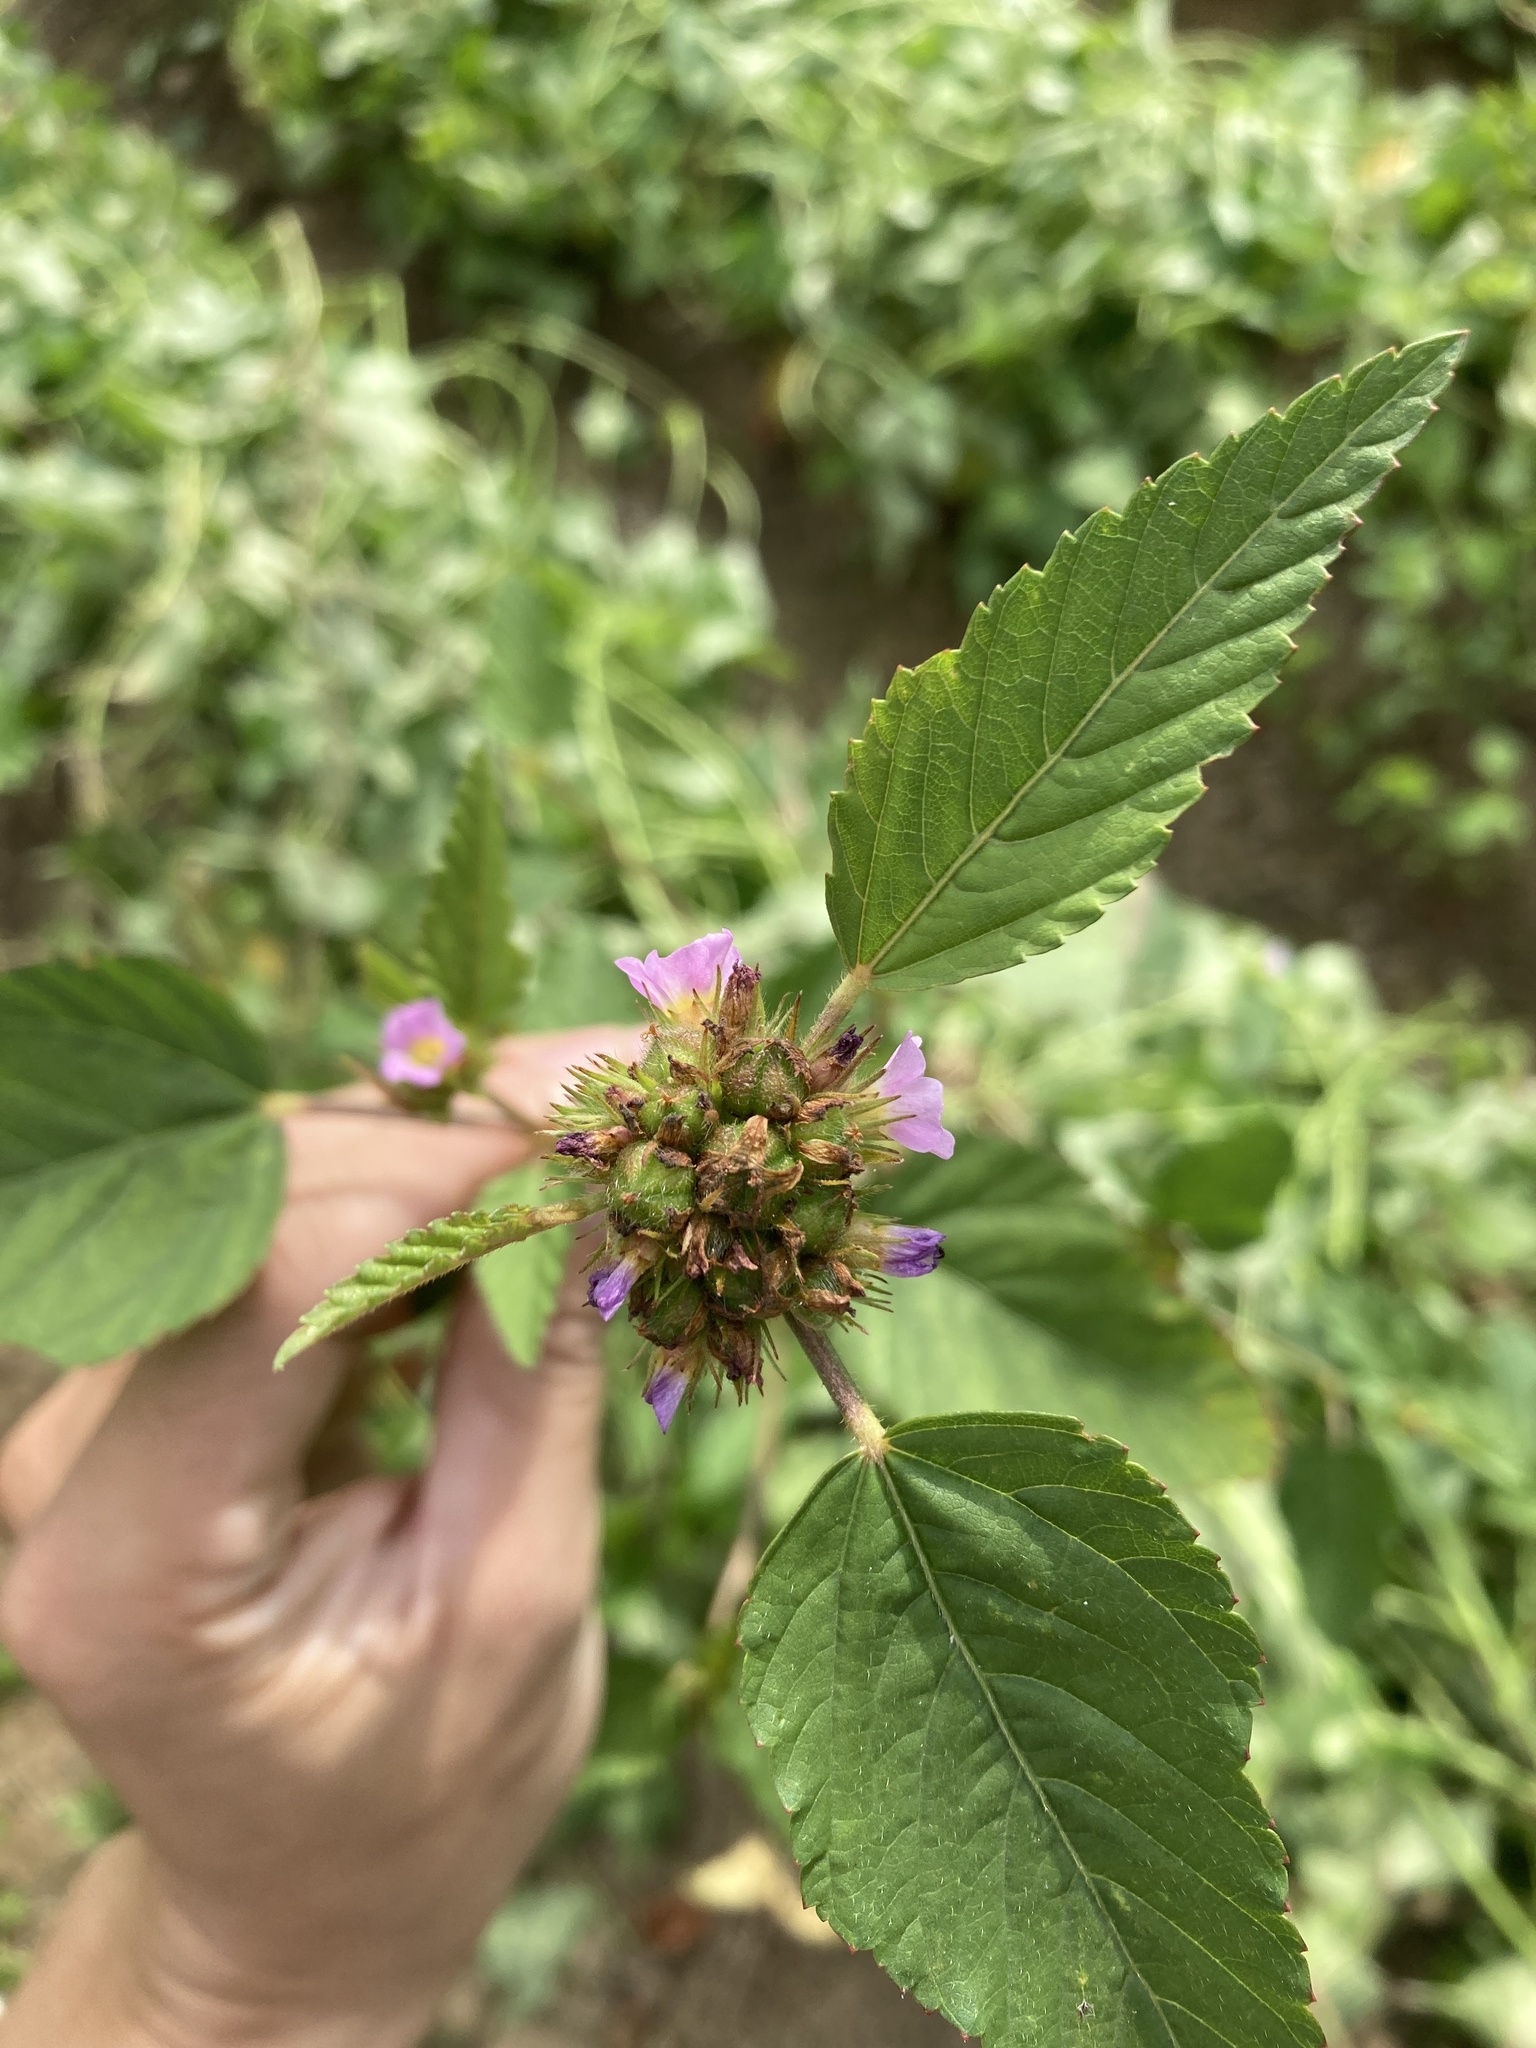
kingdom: Plantae
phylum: Tracheophyta
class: Magnoliopsida
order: Malvales
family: Malvaceae
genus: Melochia
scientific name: Melochia corchorifolia
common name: Chocolateweed
